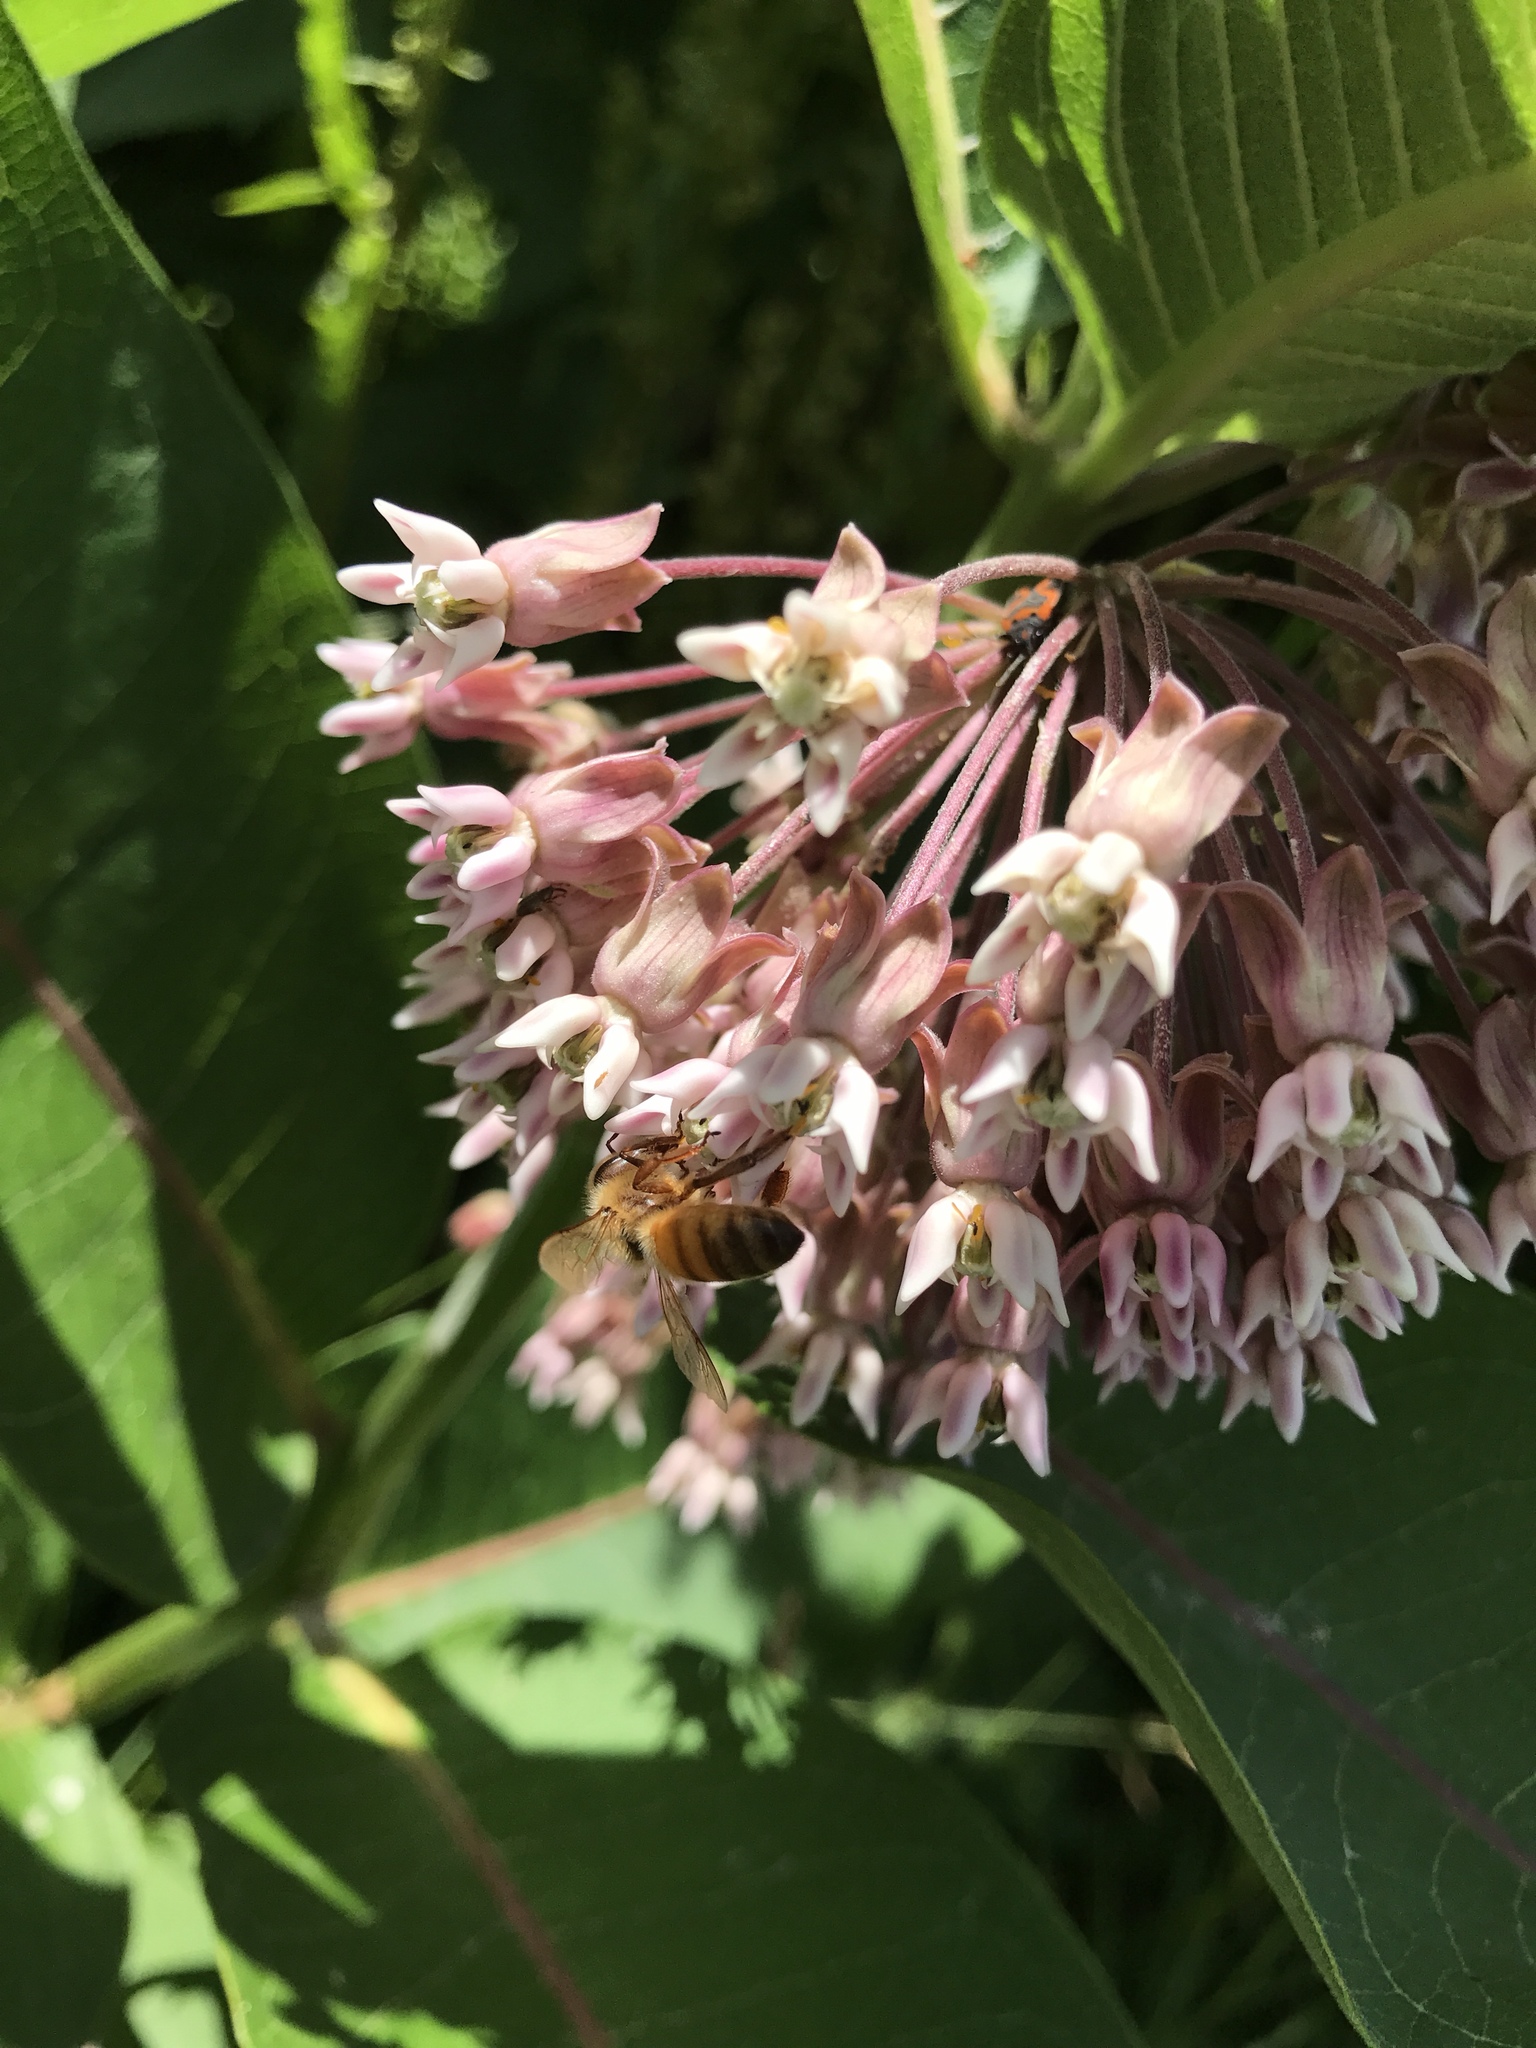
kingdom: Animalia
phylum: Arthropoda
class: Insecta
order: Hymenoptera
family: Apidae
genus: Apis
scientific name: Apis mellifera
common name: Honey bee
